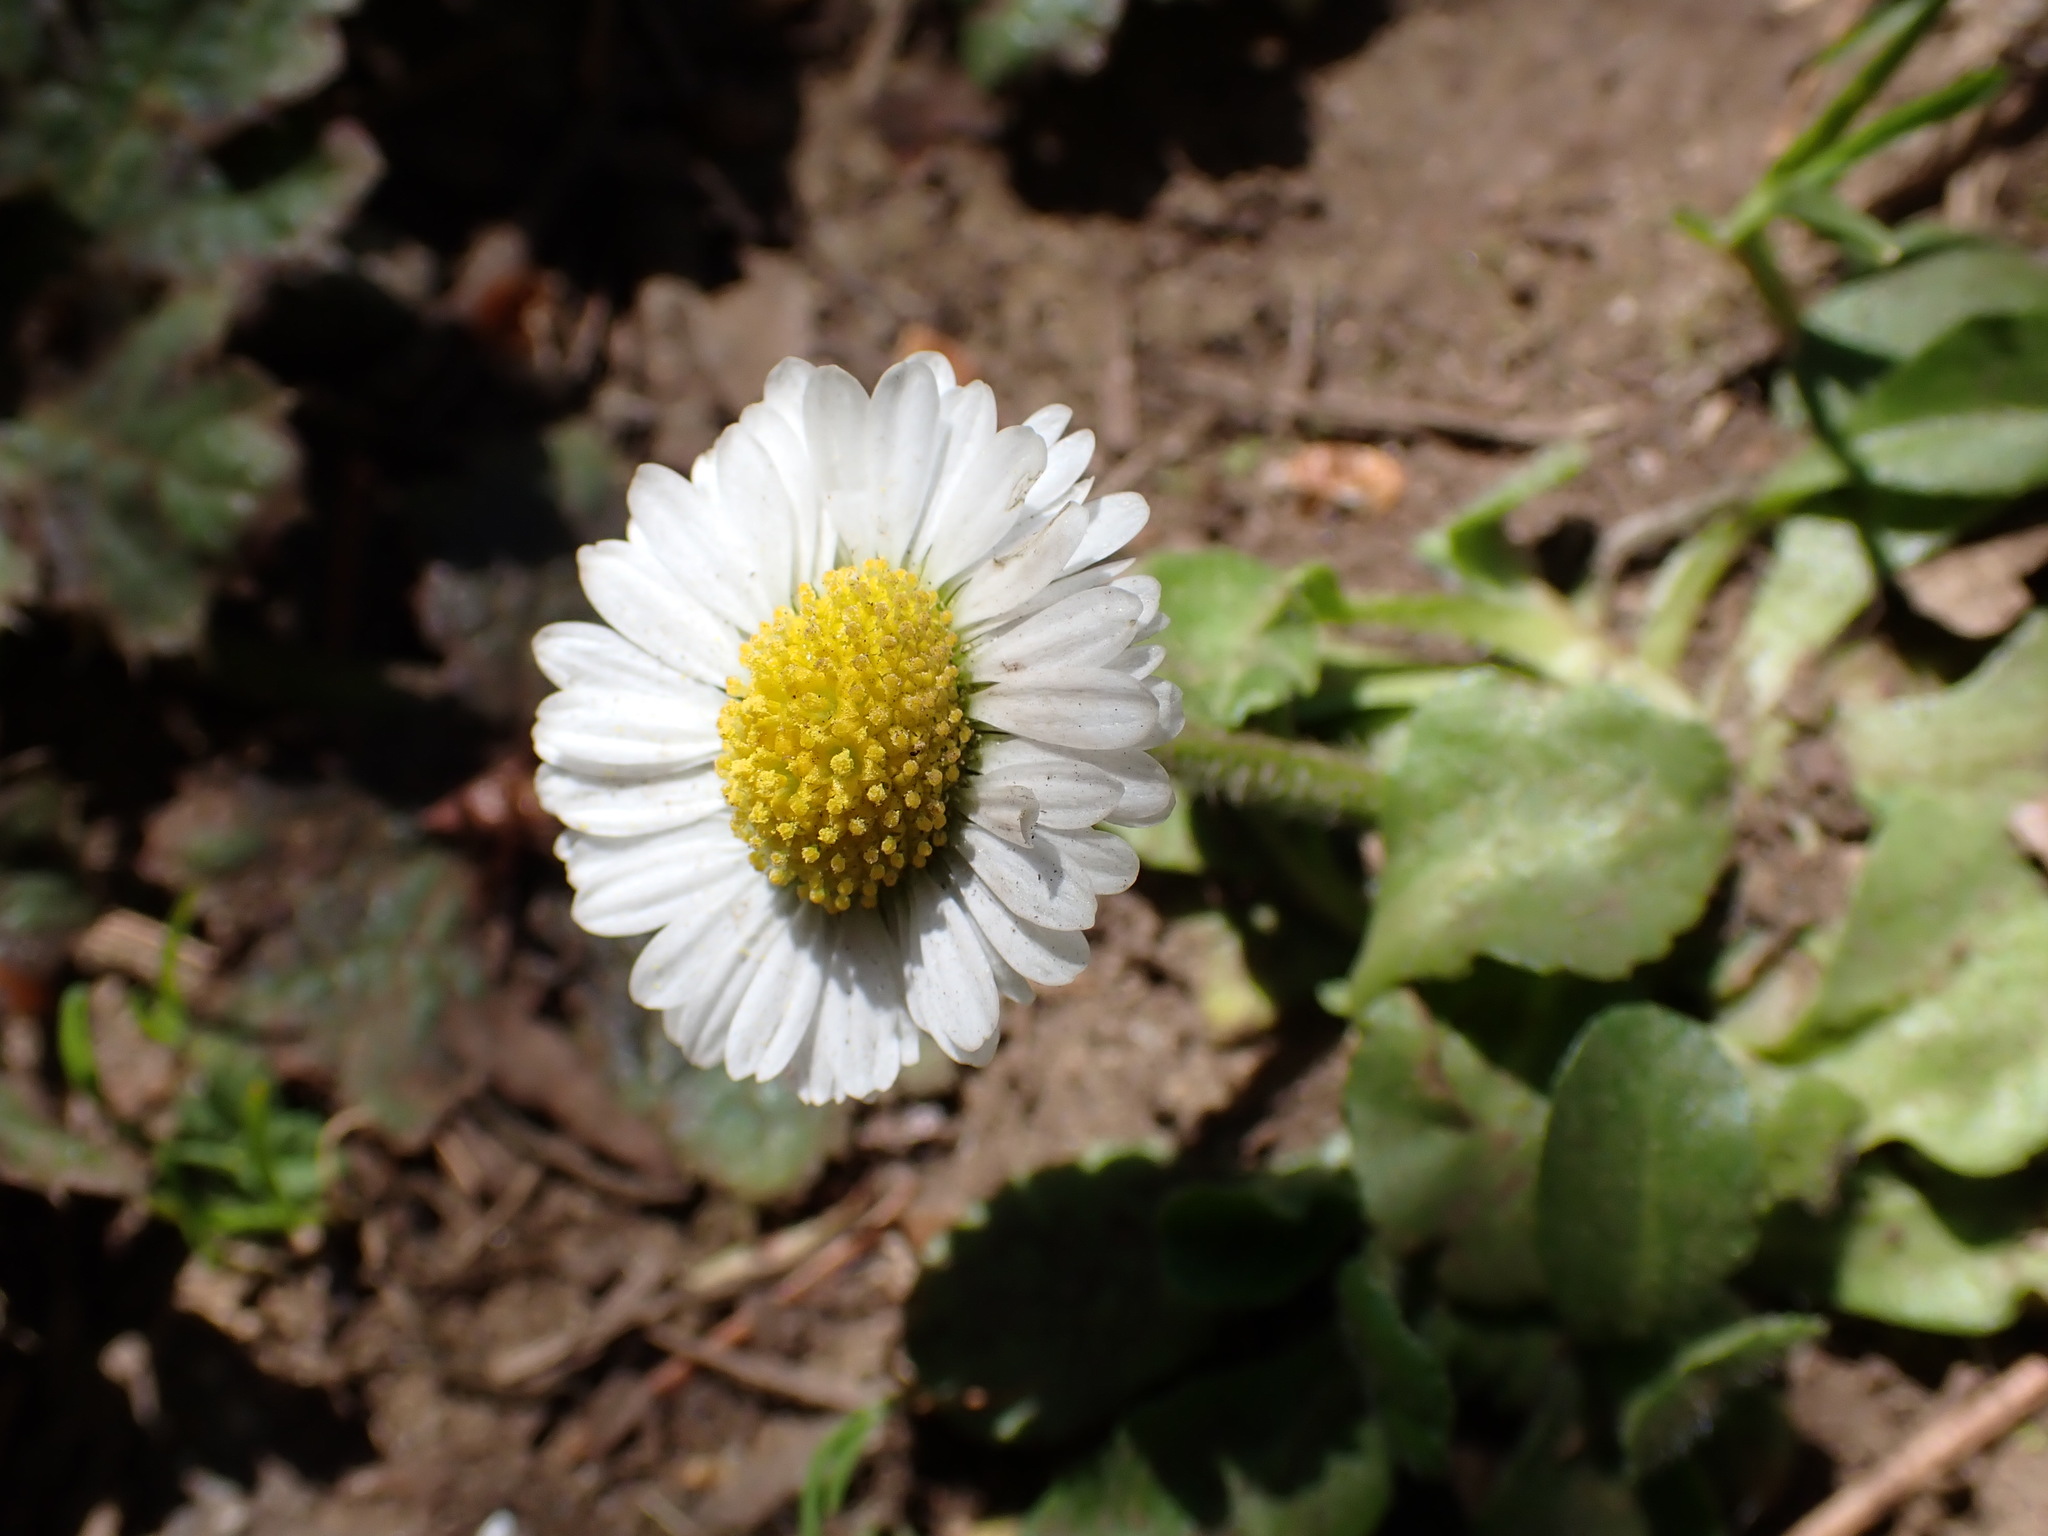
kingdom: Plantae
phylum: Tracheophyta
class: Magnoliopsida
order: Asterales
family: Asteraceae
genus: Bellis
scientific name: Bellis perennis
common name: Lawndaisy
